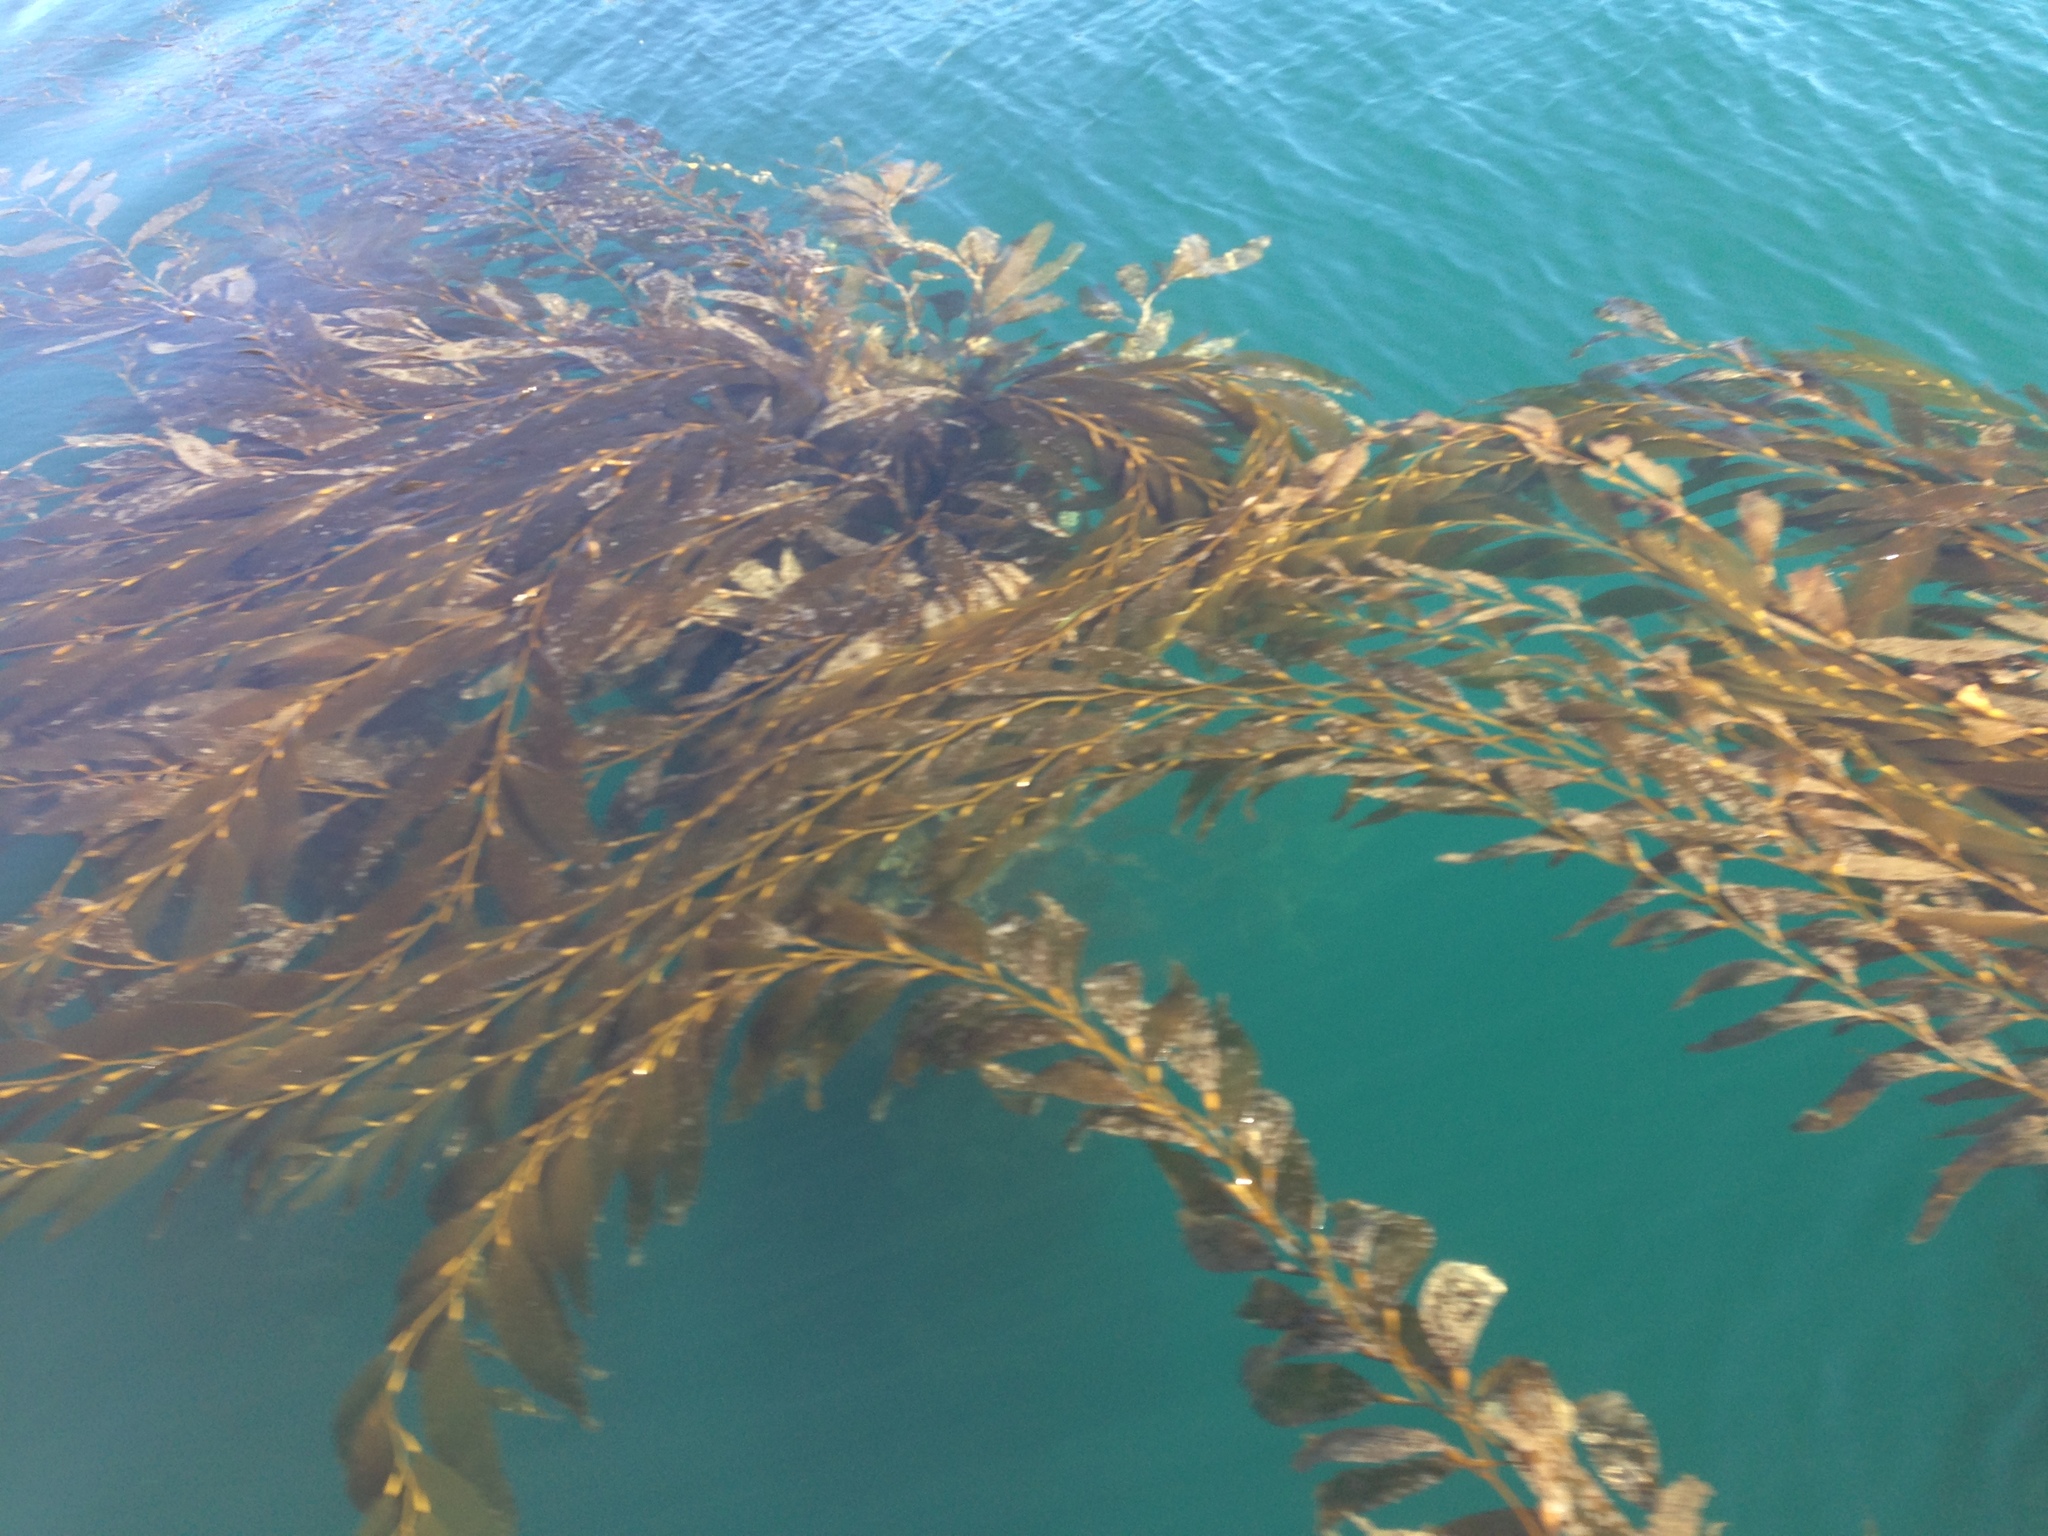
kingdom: Chromista
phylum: Ochrophyta
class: Phaeophyceae
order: Laminariales
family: Laminariaceae
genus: Macrocystis
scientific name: Macrocystis pyrifera
